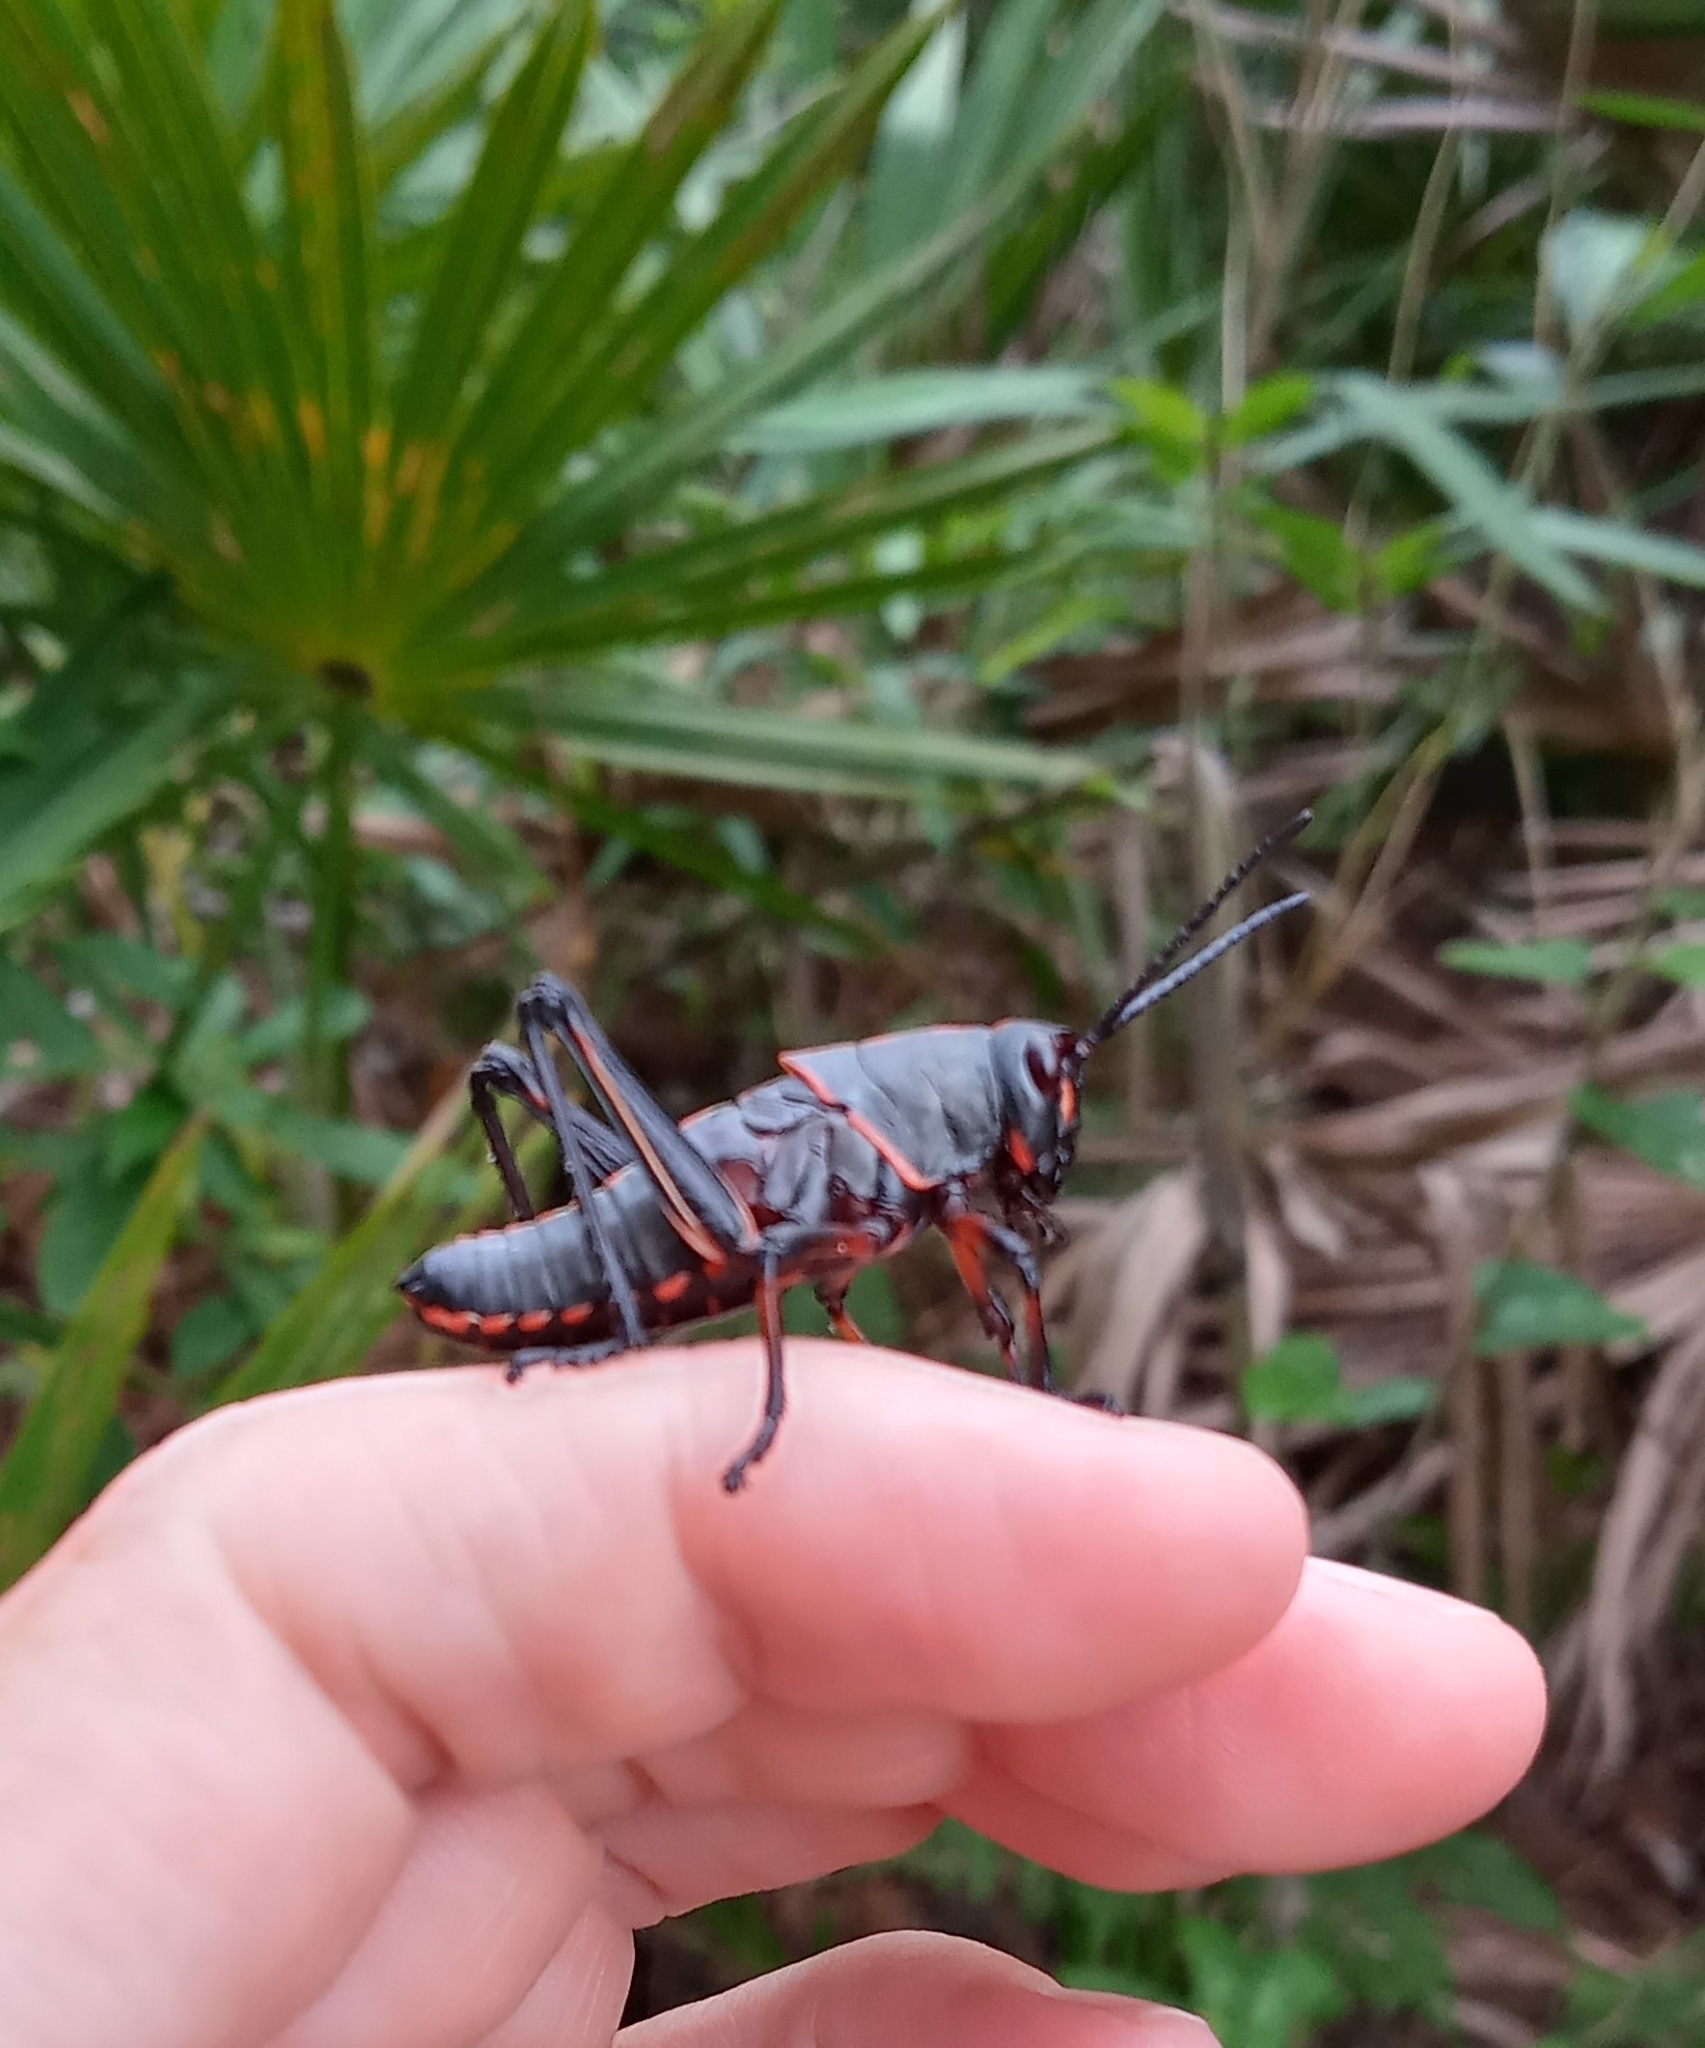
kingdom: Animalia
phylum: Arthropoda
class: Insecta
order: Orthoptera
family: Romaleidae
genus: Romalea
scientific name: Romalea microptera
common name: Eastern lubber grasshopper
